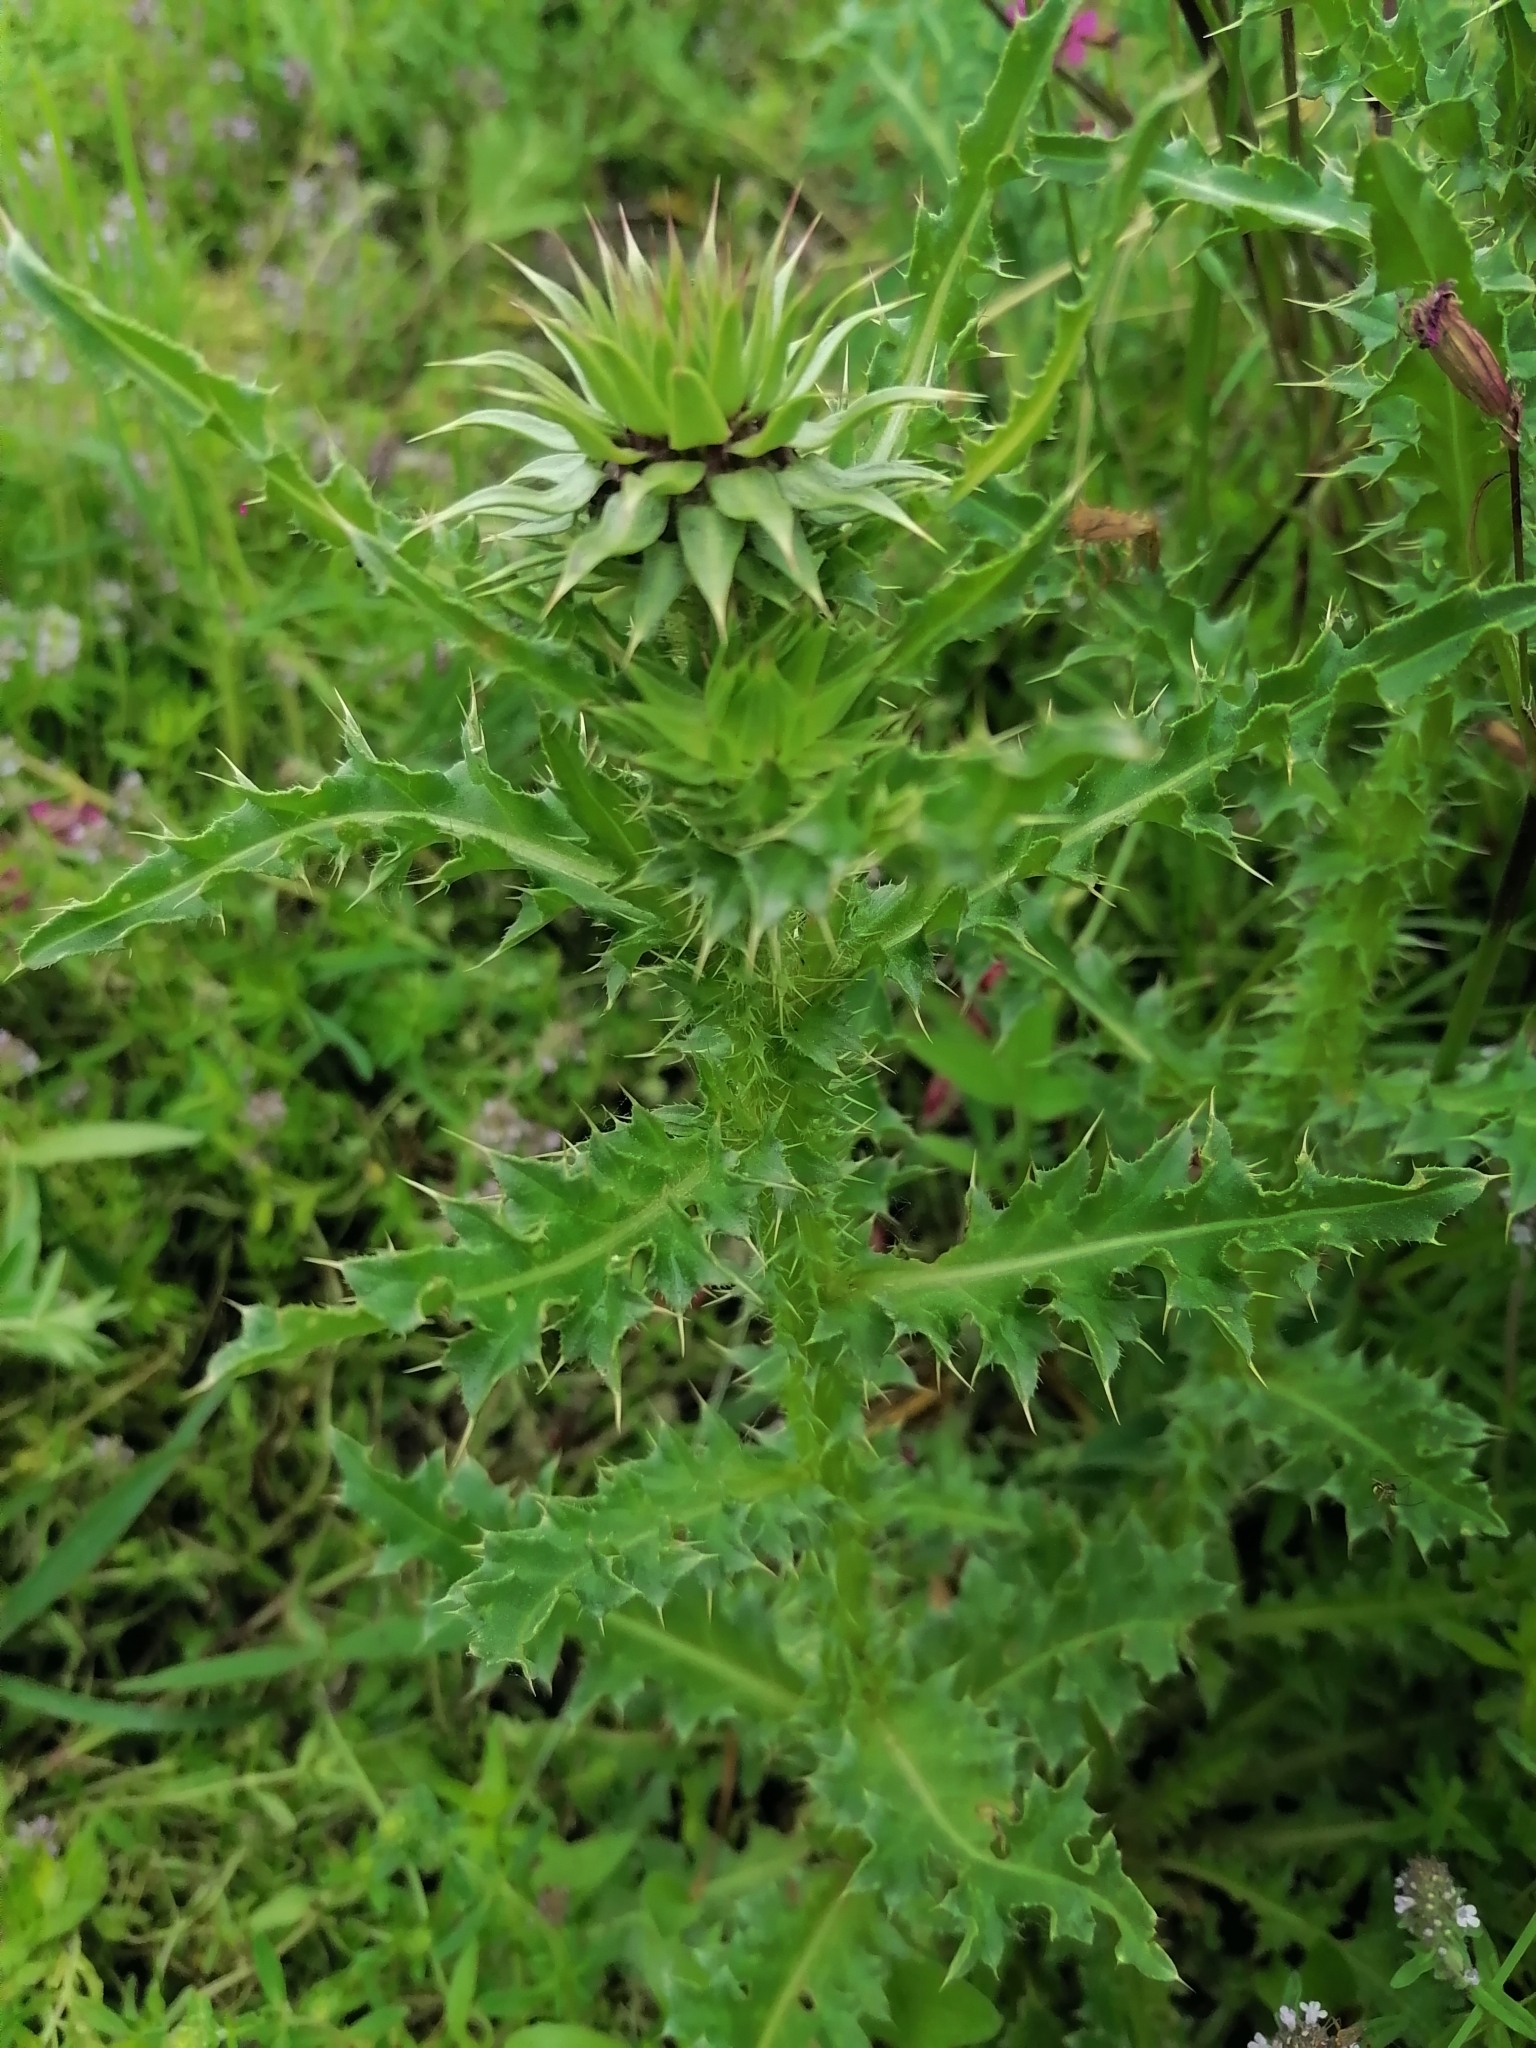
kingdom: Plantae
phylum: Tracheophyta
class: Magnoliopsida
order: Asterales
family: Asteraceae
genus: Carduus
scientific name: Carduus nutans
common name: Musk thistle
